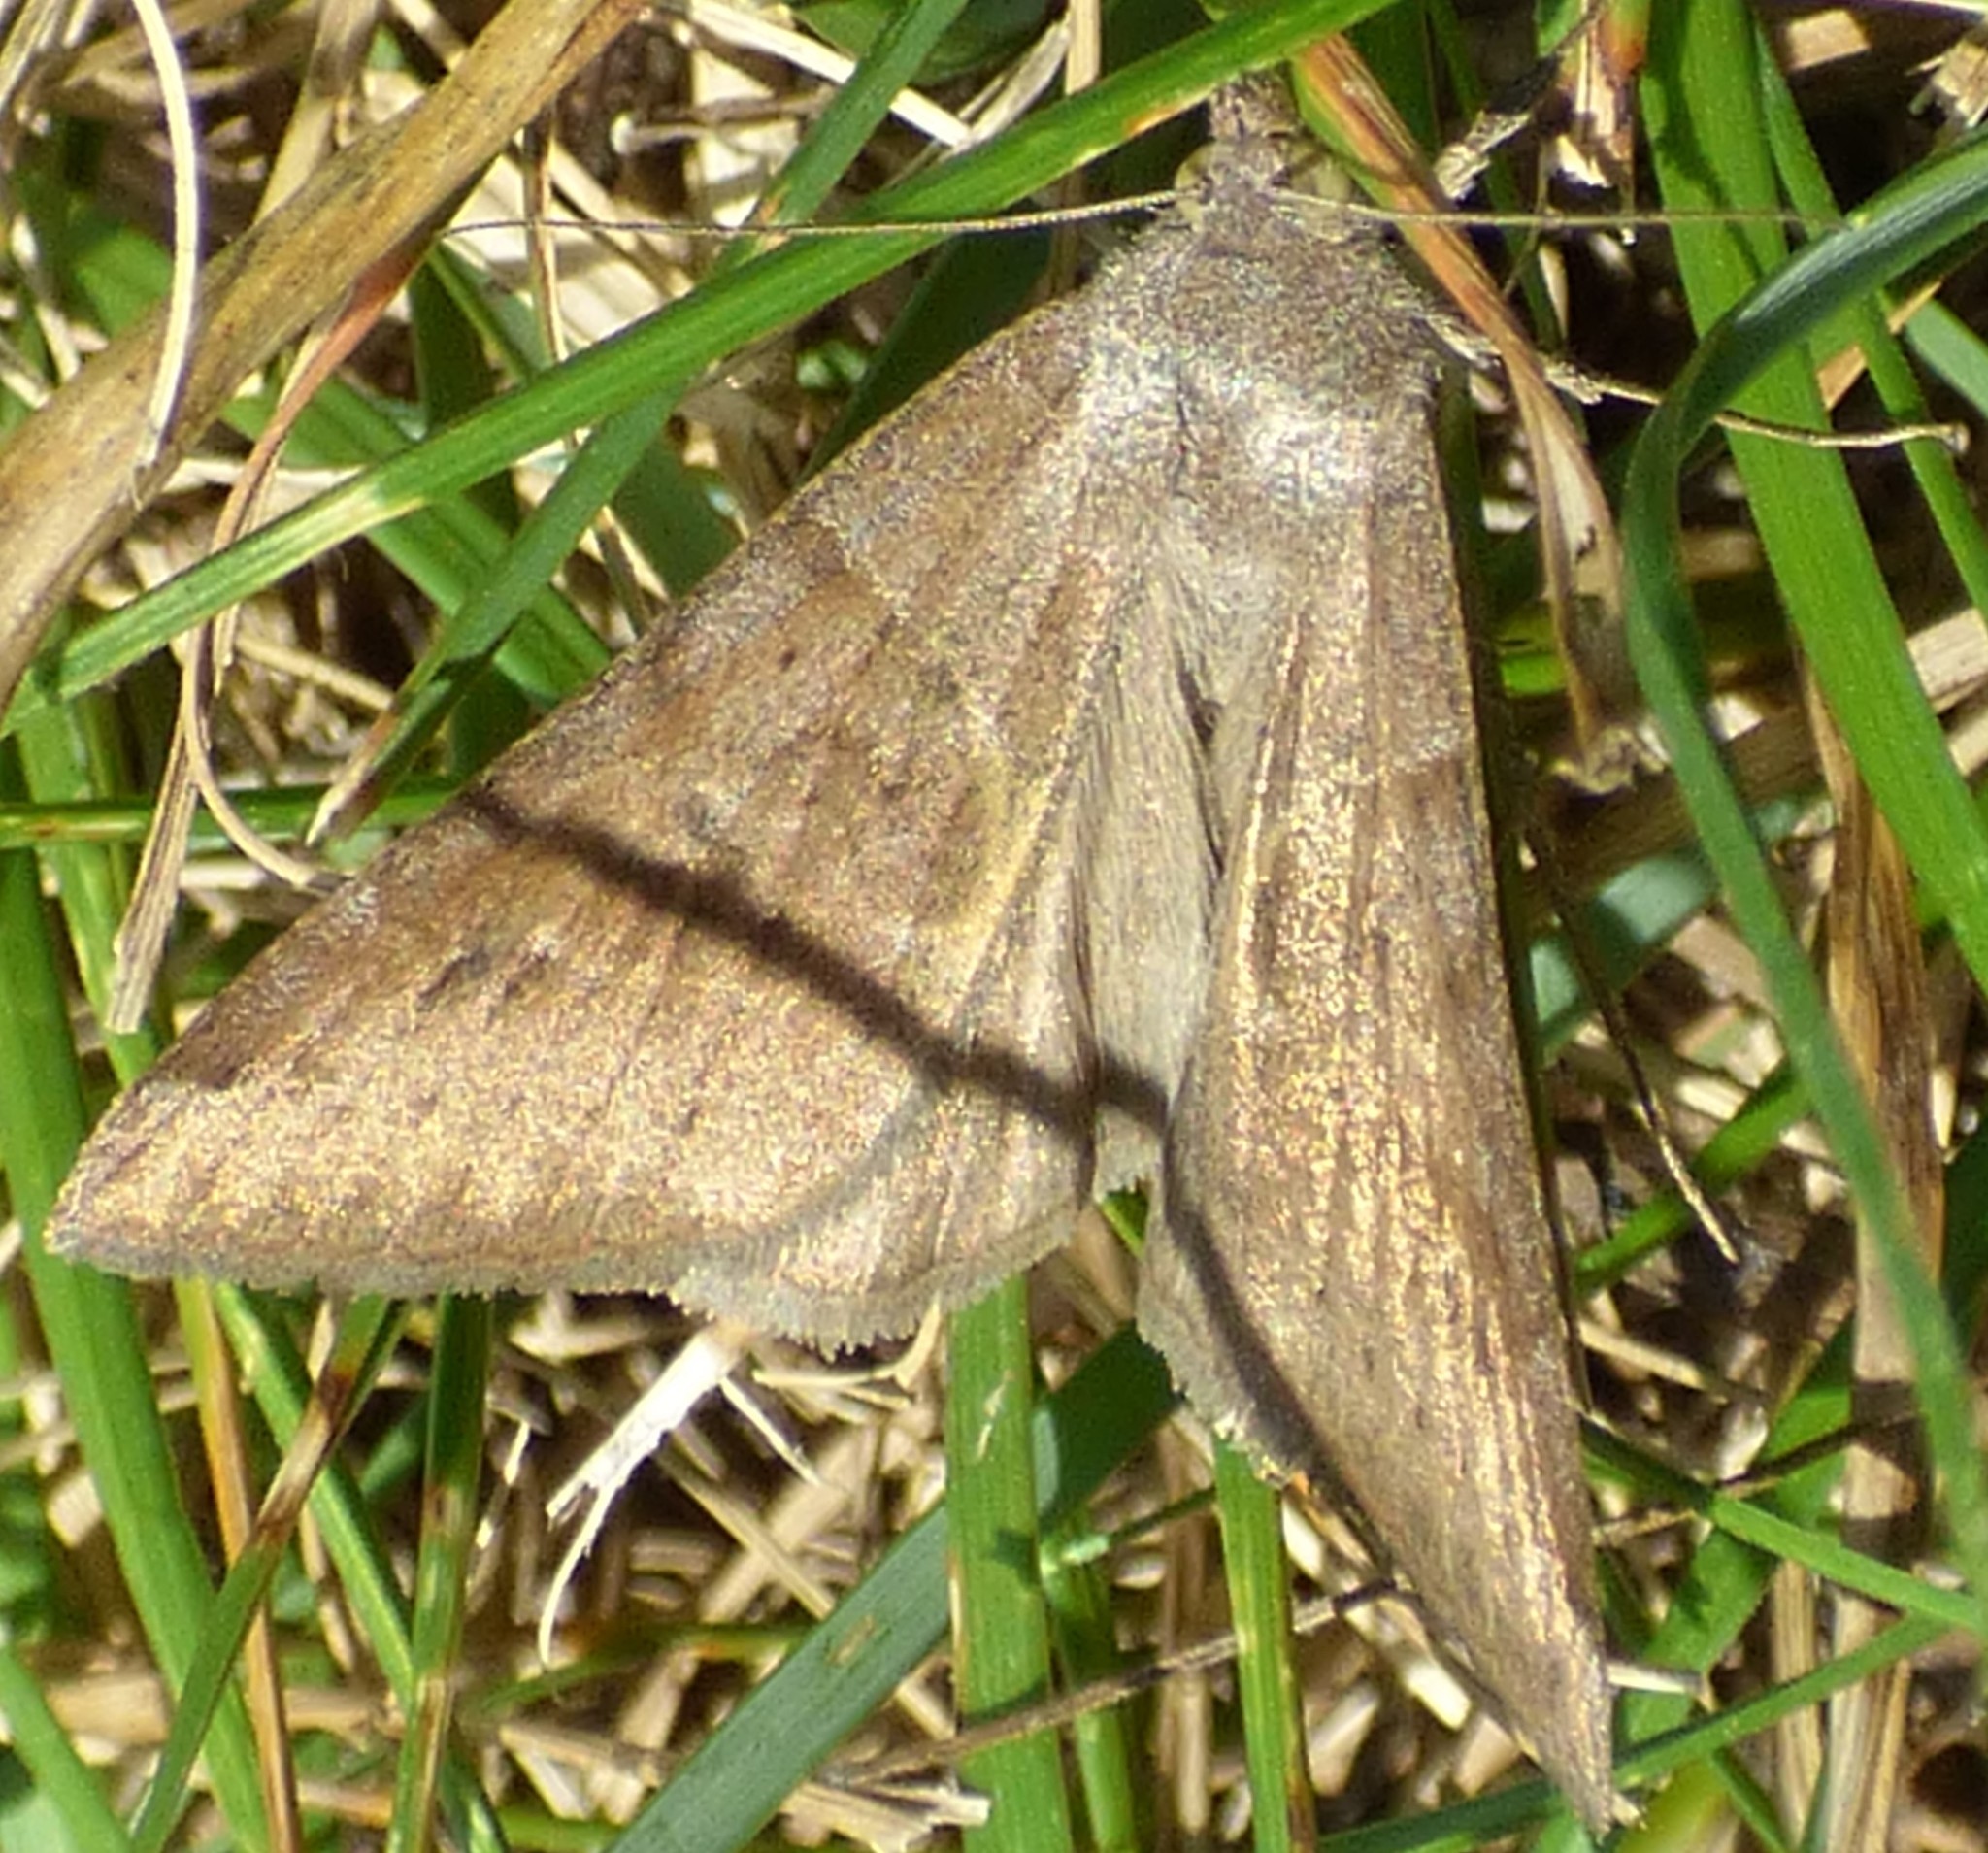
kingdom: Animalia
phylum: Arthropoda
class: Insecta
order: Lepidoptera
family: Erebidae
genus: Caenurgina
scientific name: Caenurgina erechtea
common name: Forage looper moth
